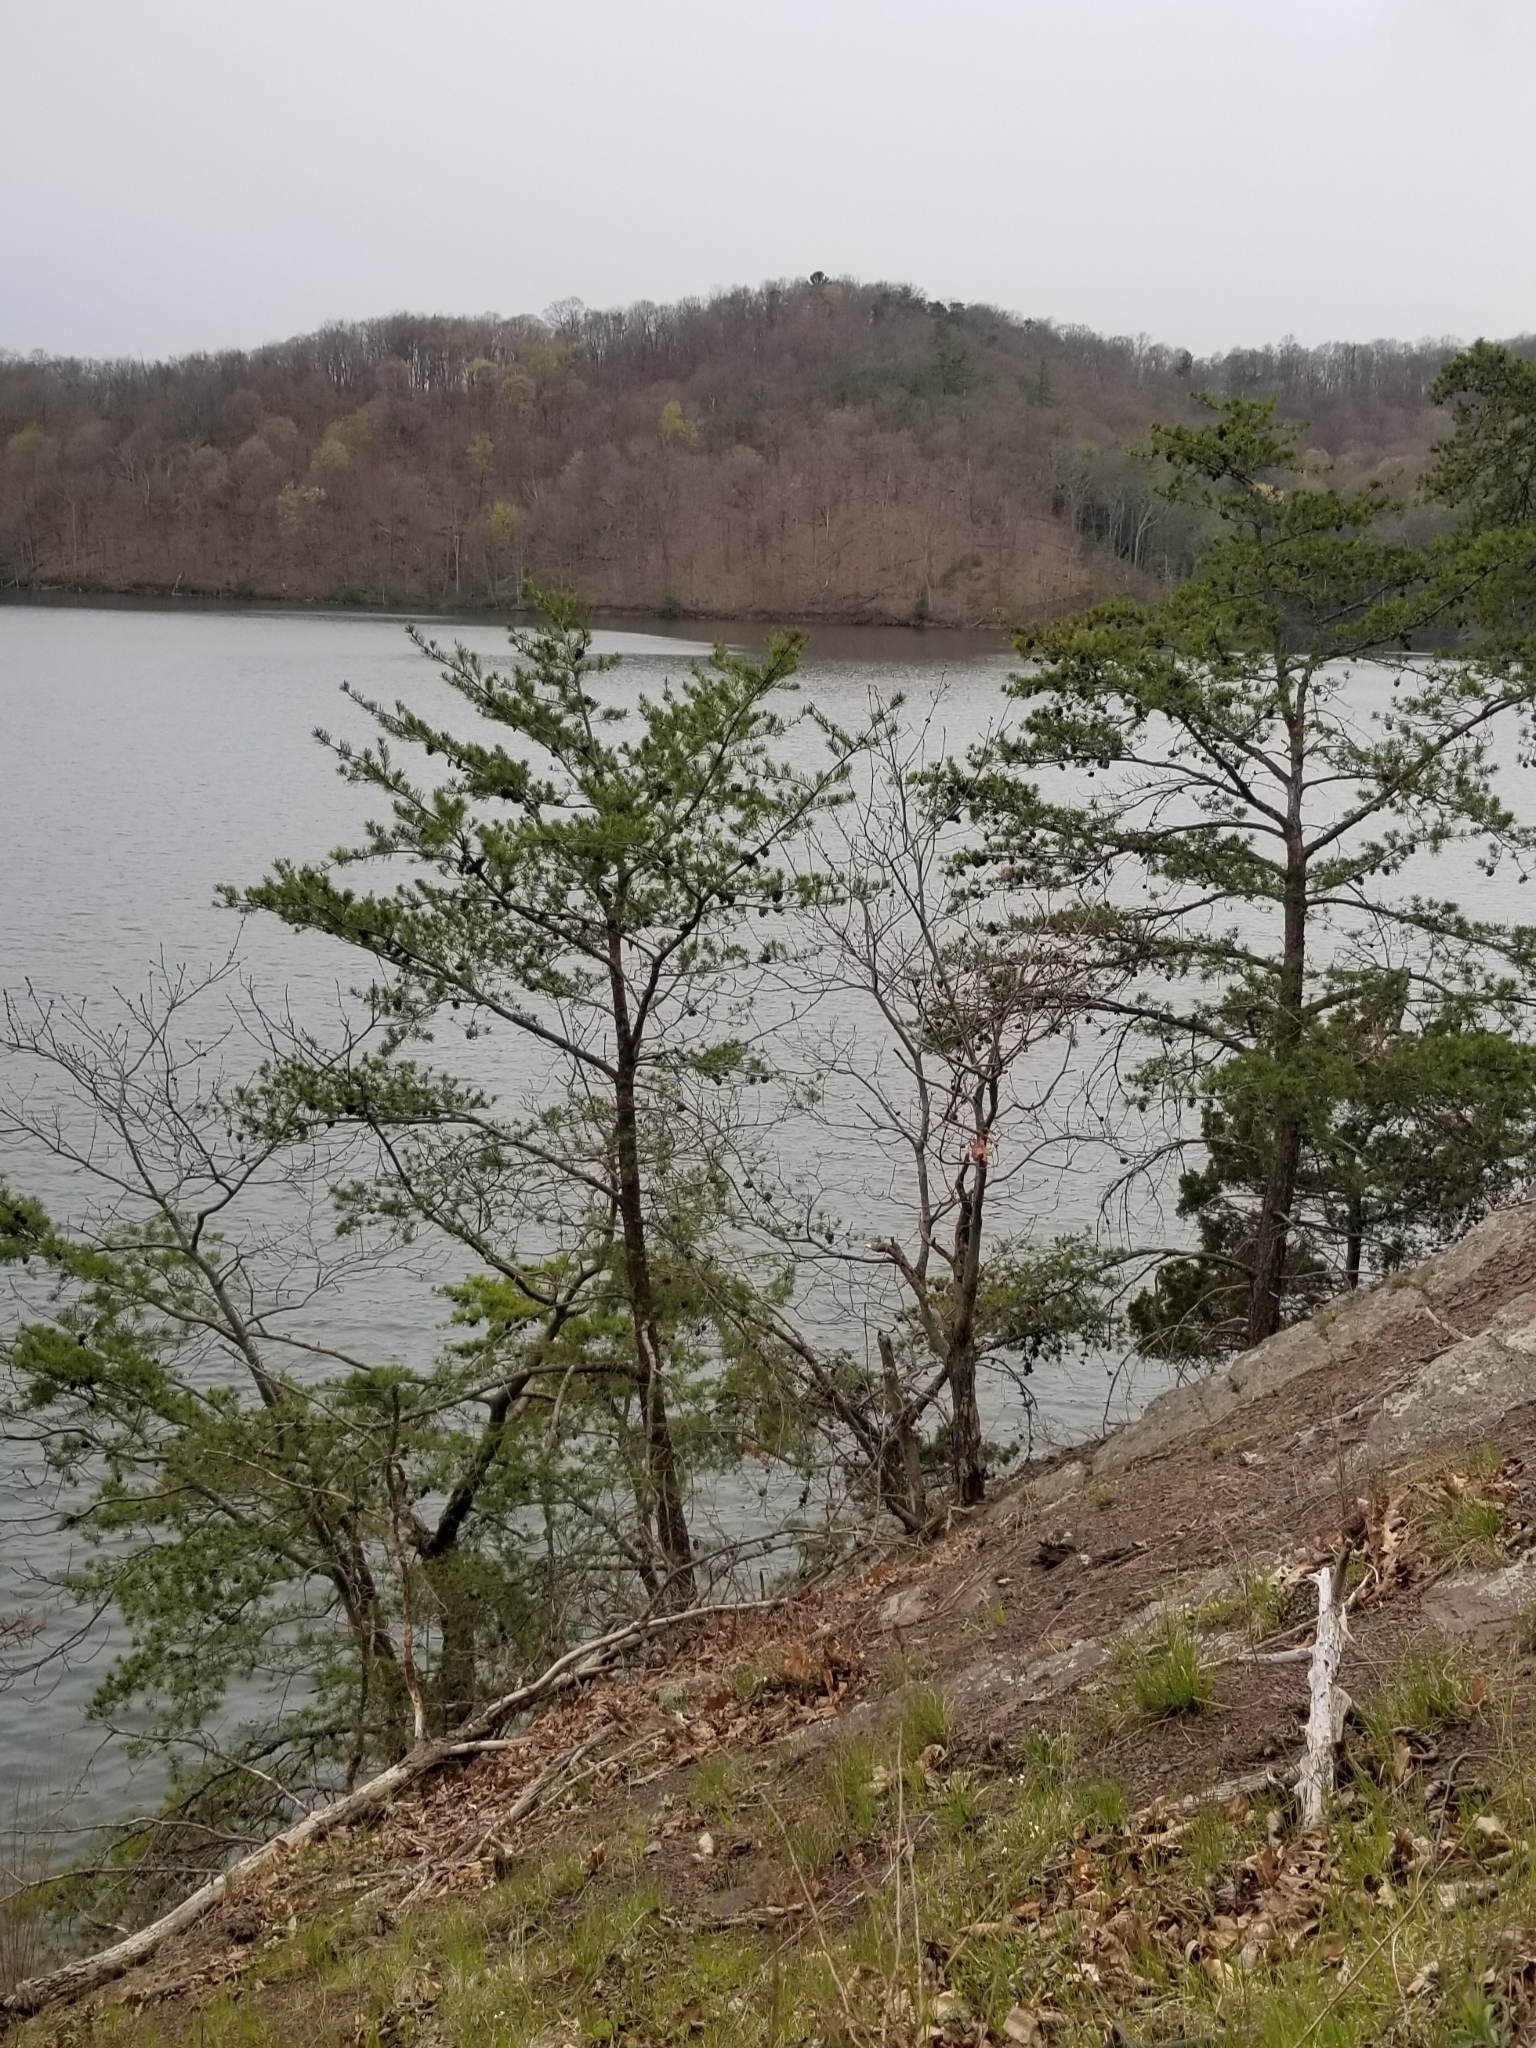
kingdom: Plantae
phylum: Tracheophyta
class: Pinopsida
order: Pinales
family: Pinaceae
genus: Pinus
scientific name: Pinus virginiana
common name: Scrub pine
